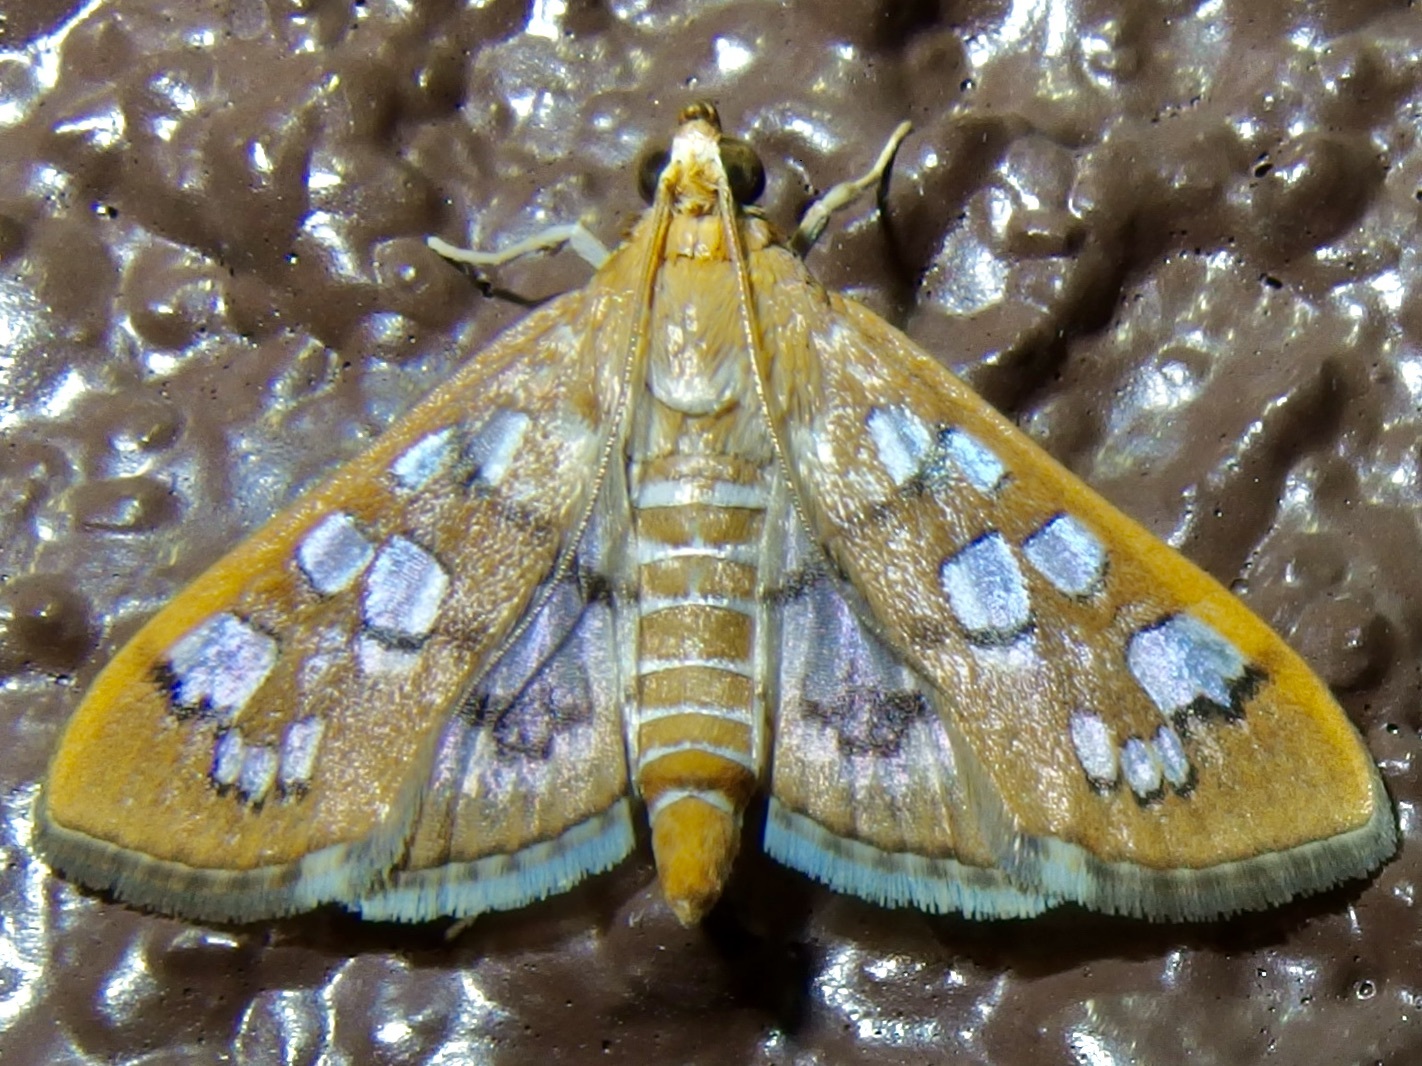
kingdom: Animalia
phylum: Arthropoda
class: Insecta
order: Lepidoptera
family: Crambidae
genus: Samea
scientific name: Samea baccatalis
